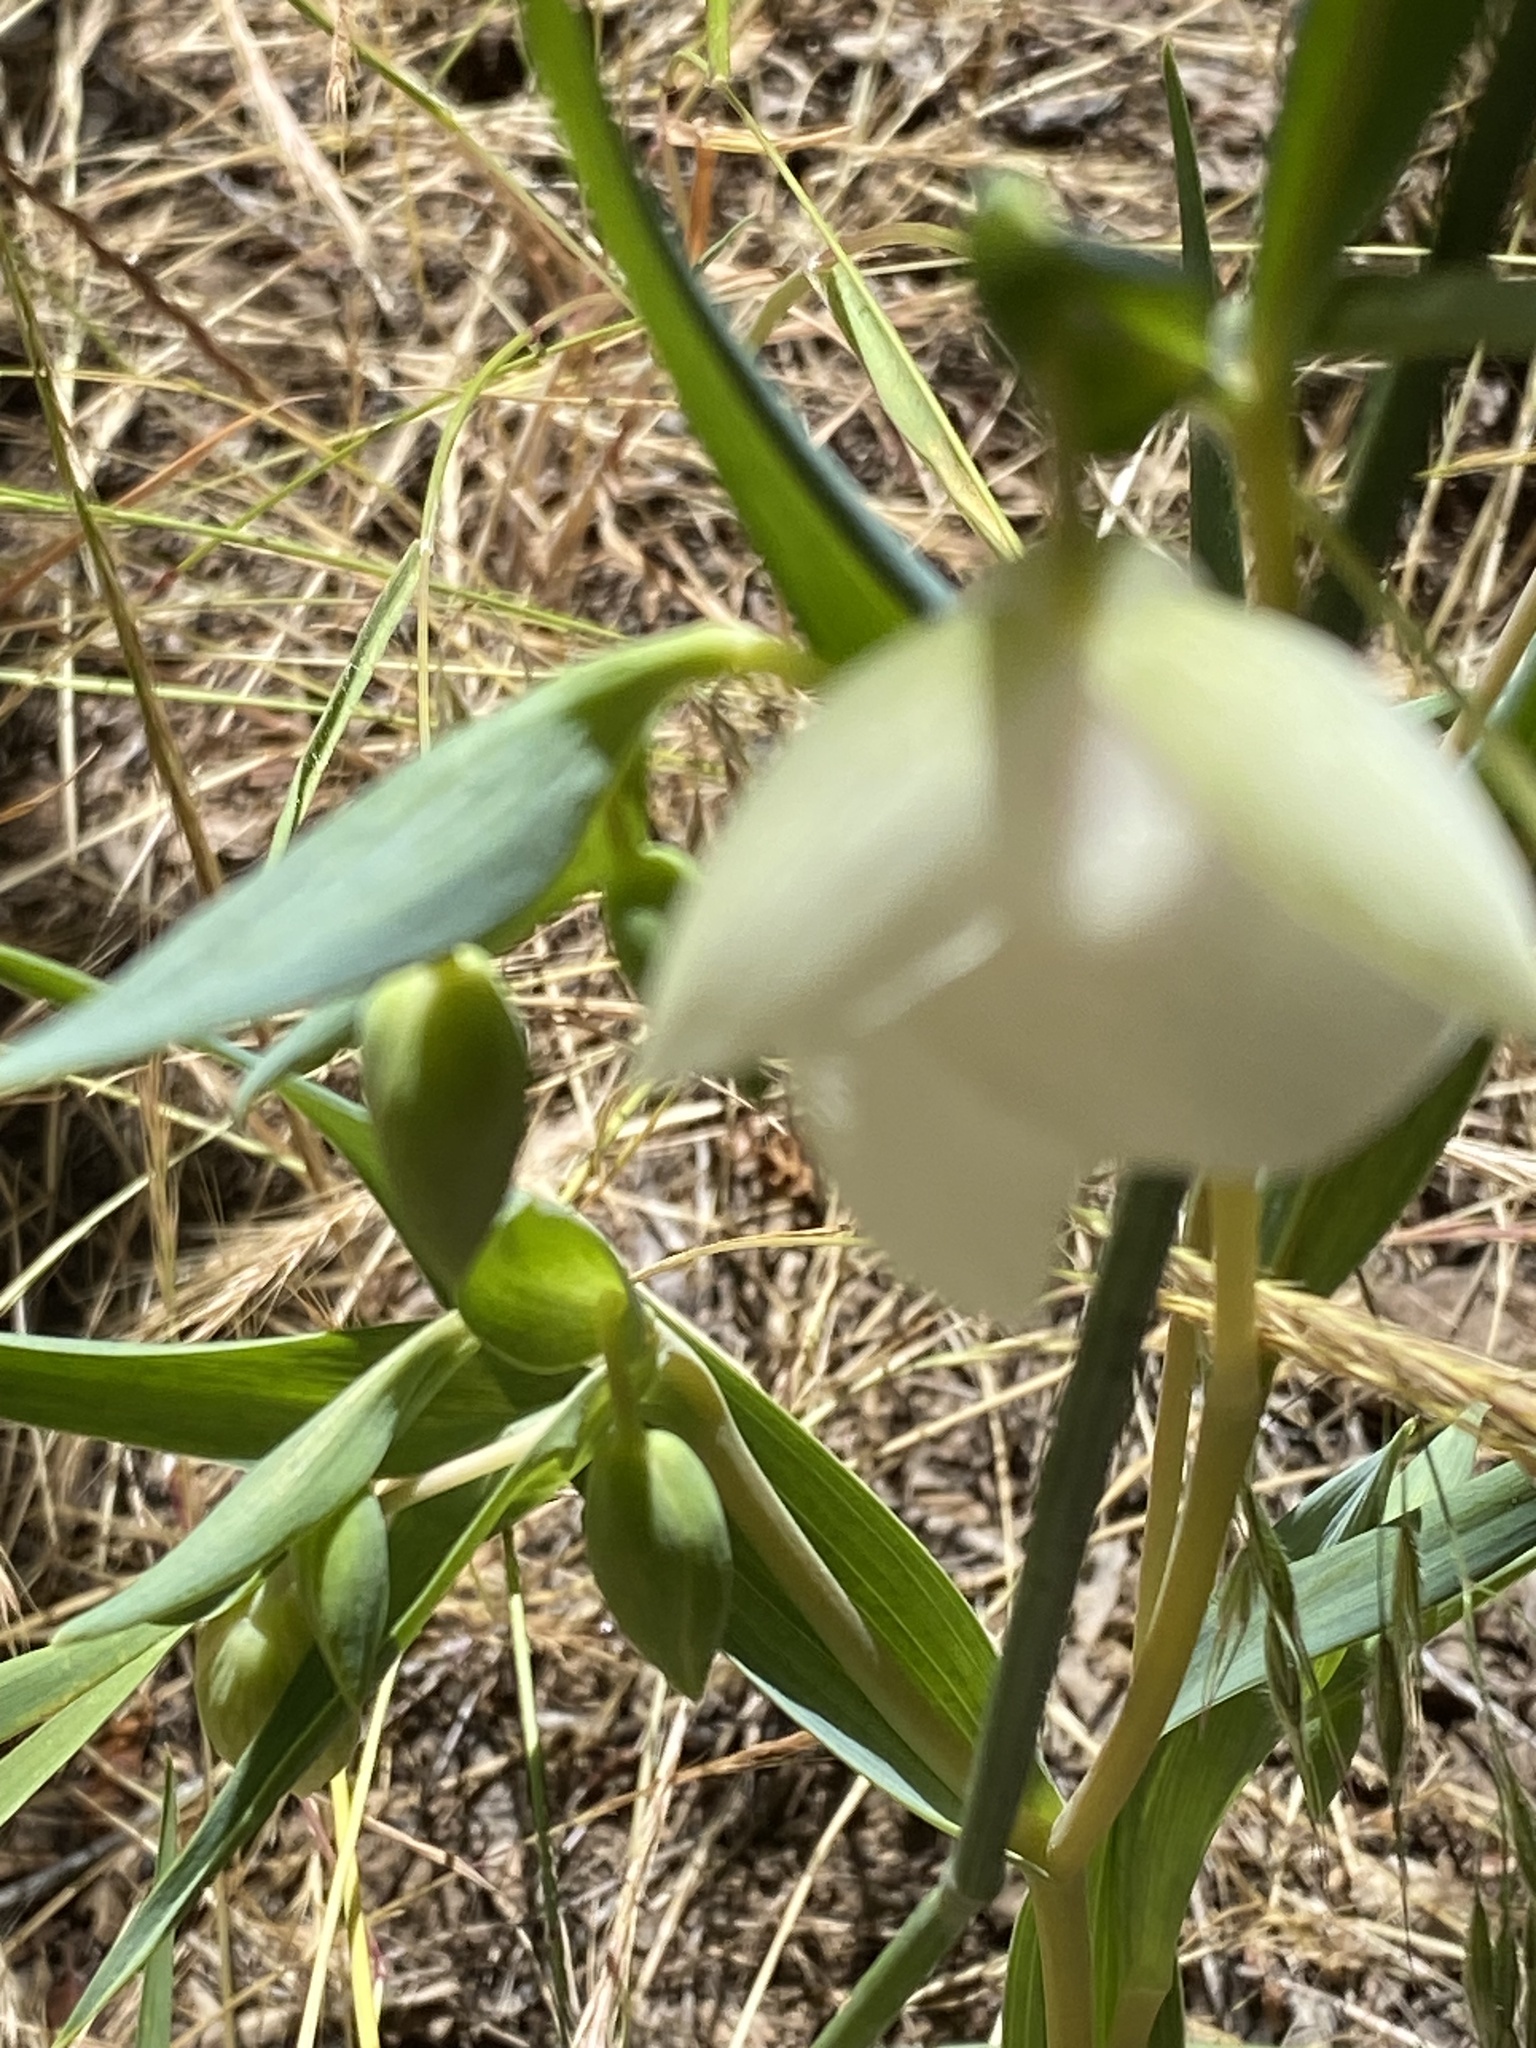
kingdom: Plantae
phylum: Tracheophyta
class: Liliopsida
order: Liliales
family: Liliaceae
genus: Calochortus
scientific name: Calochortus albus
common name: Fairy-lantern
